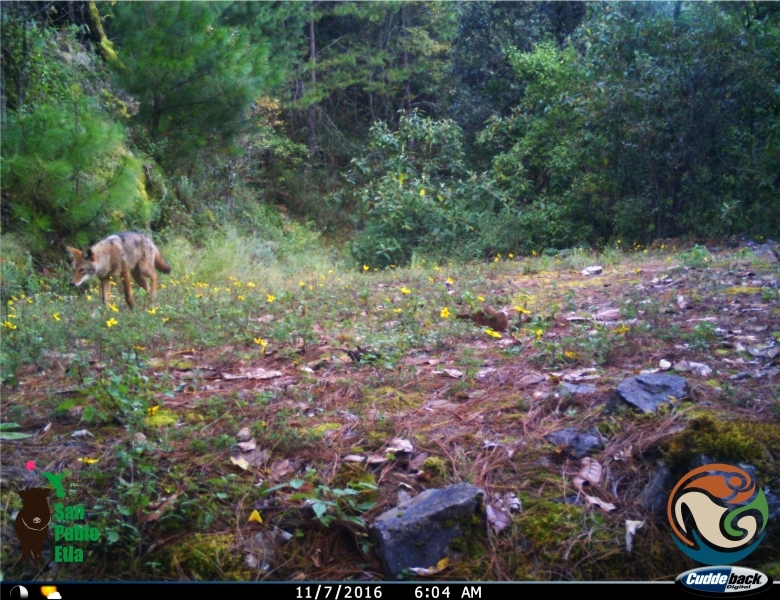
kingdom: Animalia
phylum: Chordata
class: Mammalia
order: Carnivora
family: Canidae
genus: Canis
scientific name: Canis latrans
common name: Coyote
